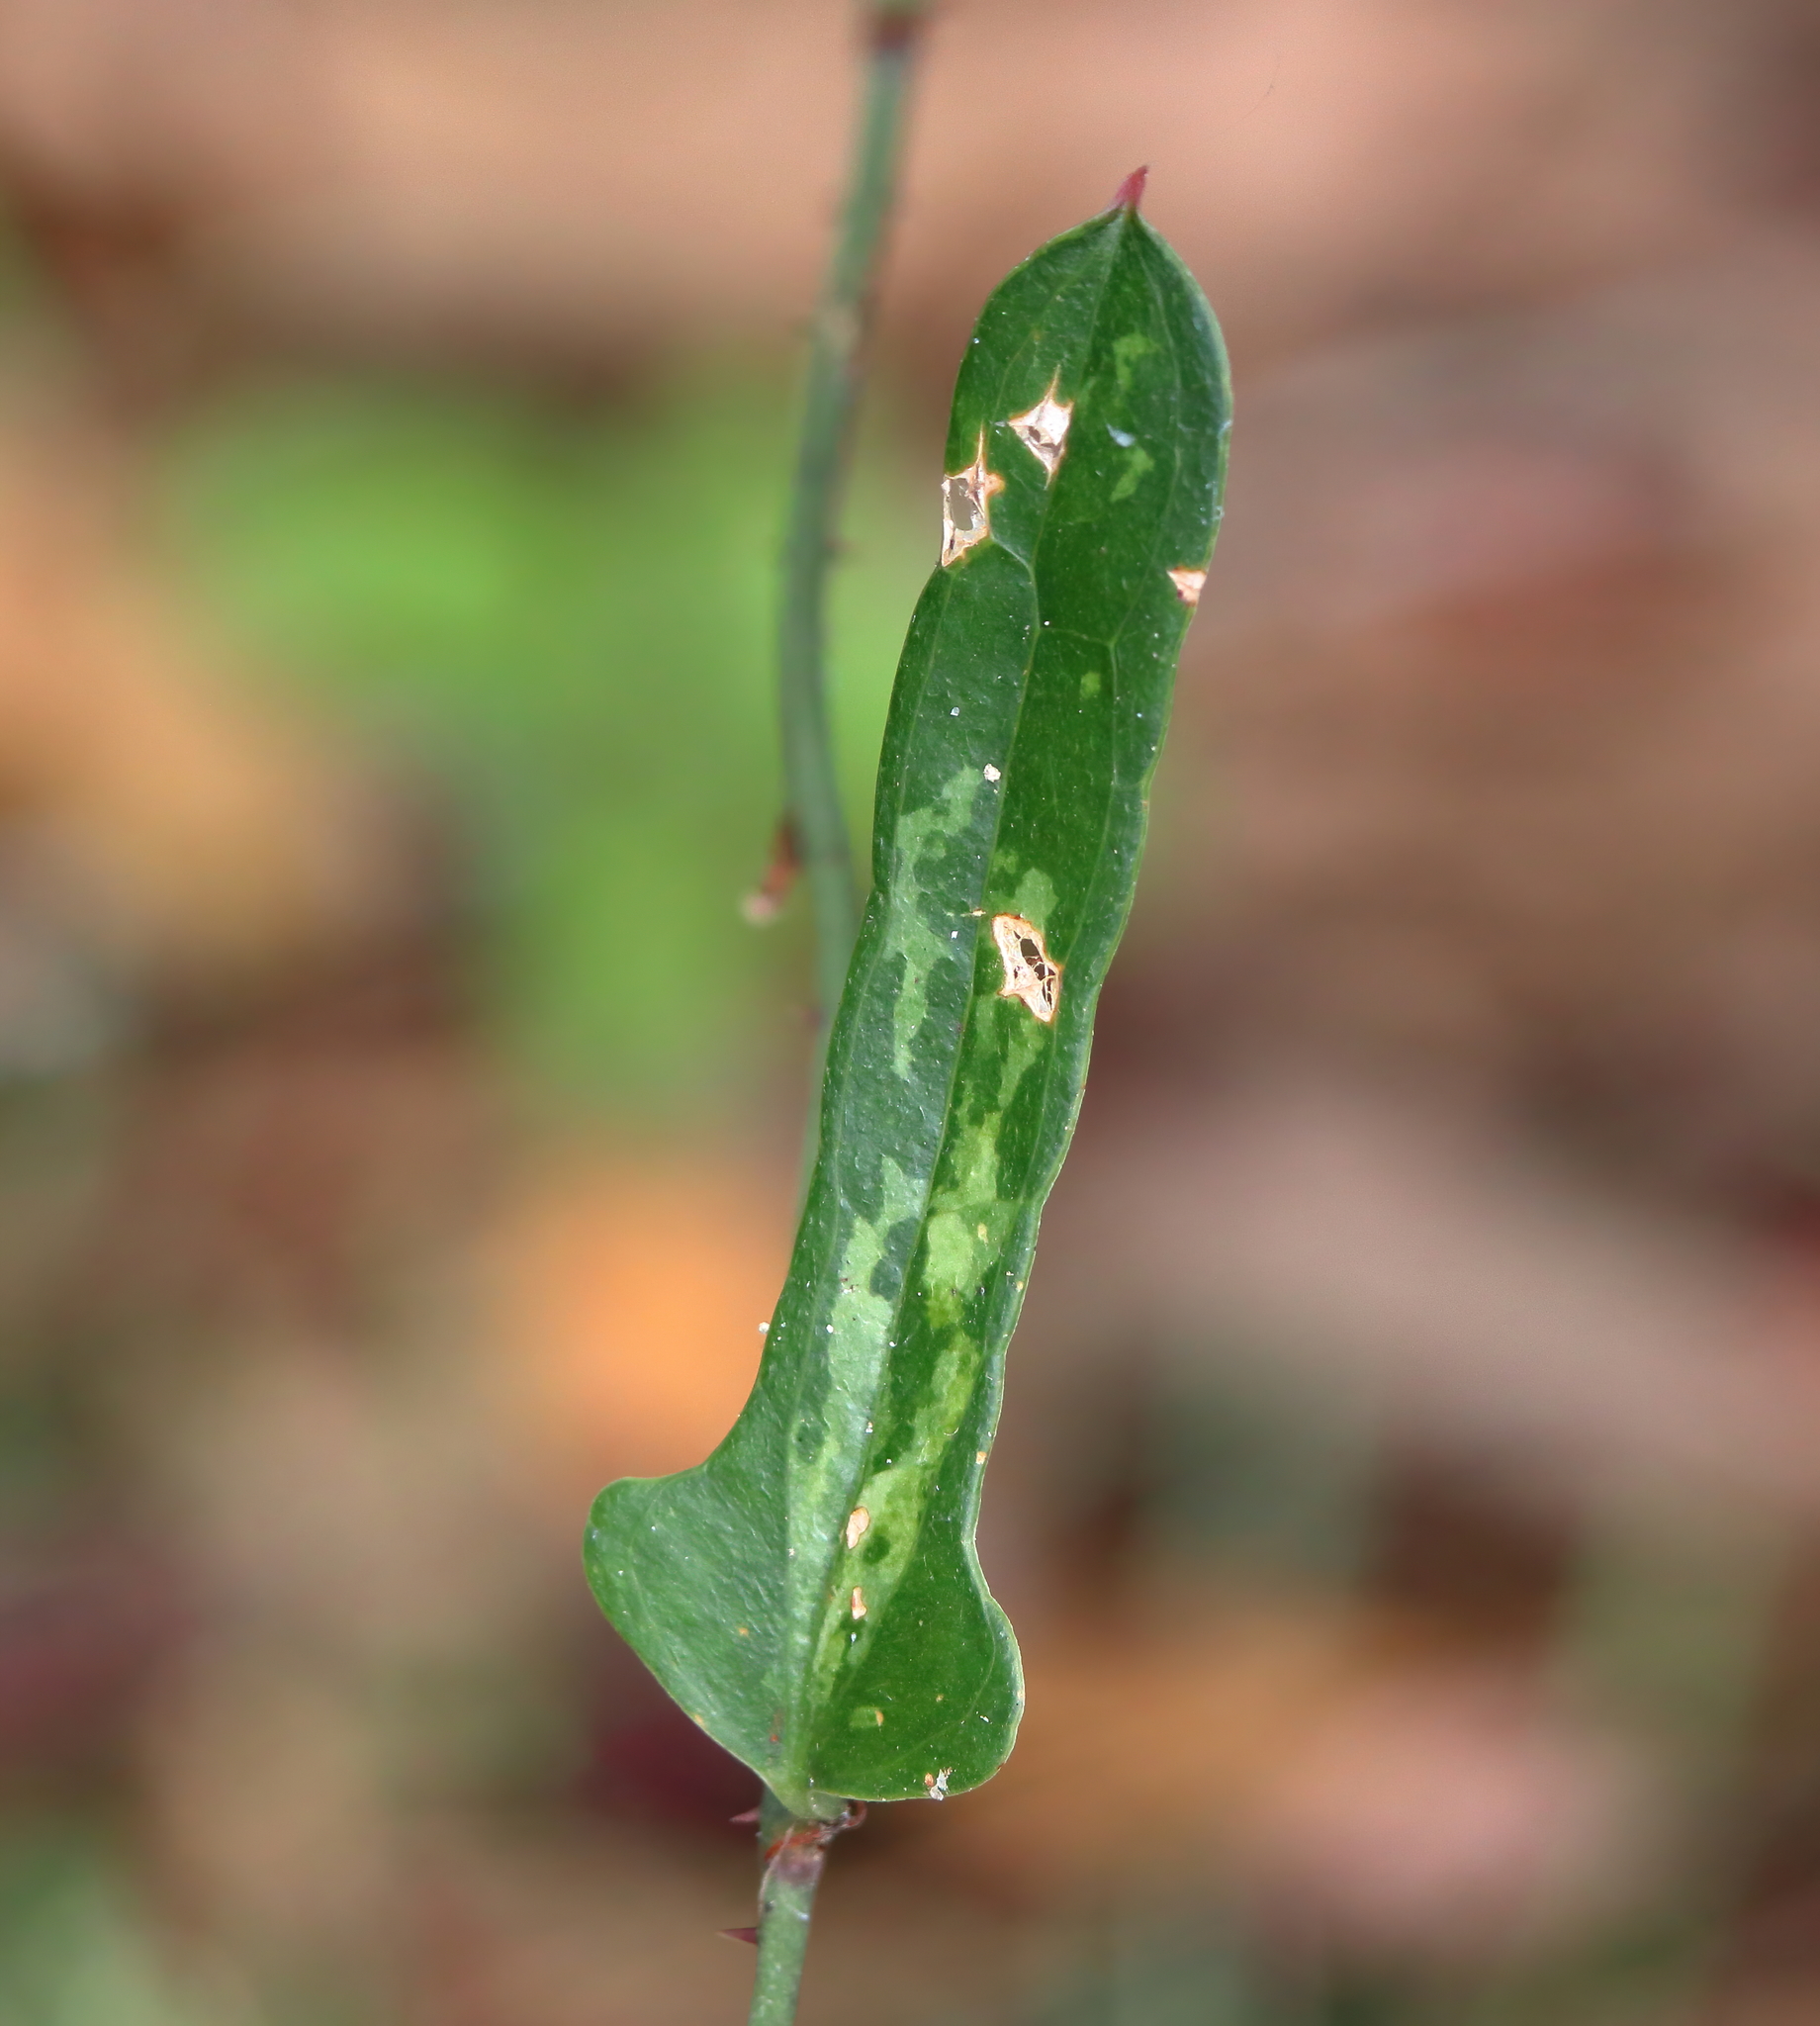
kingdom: Plantae
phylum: Tracheophyta
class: Liliopsida
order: Liliales
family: Smilacaceae
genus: Smilax
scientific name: Smilax auriculata
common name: Wild bamboo
